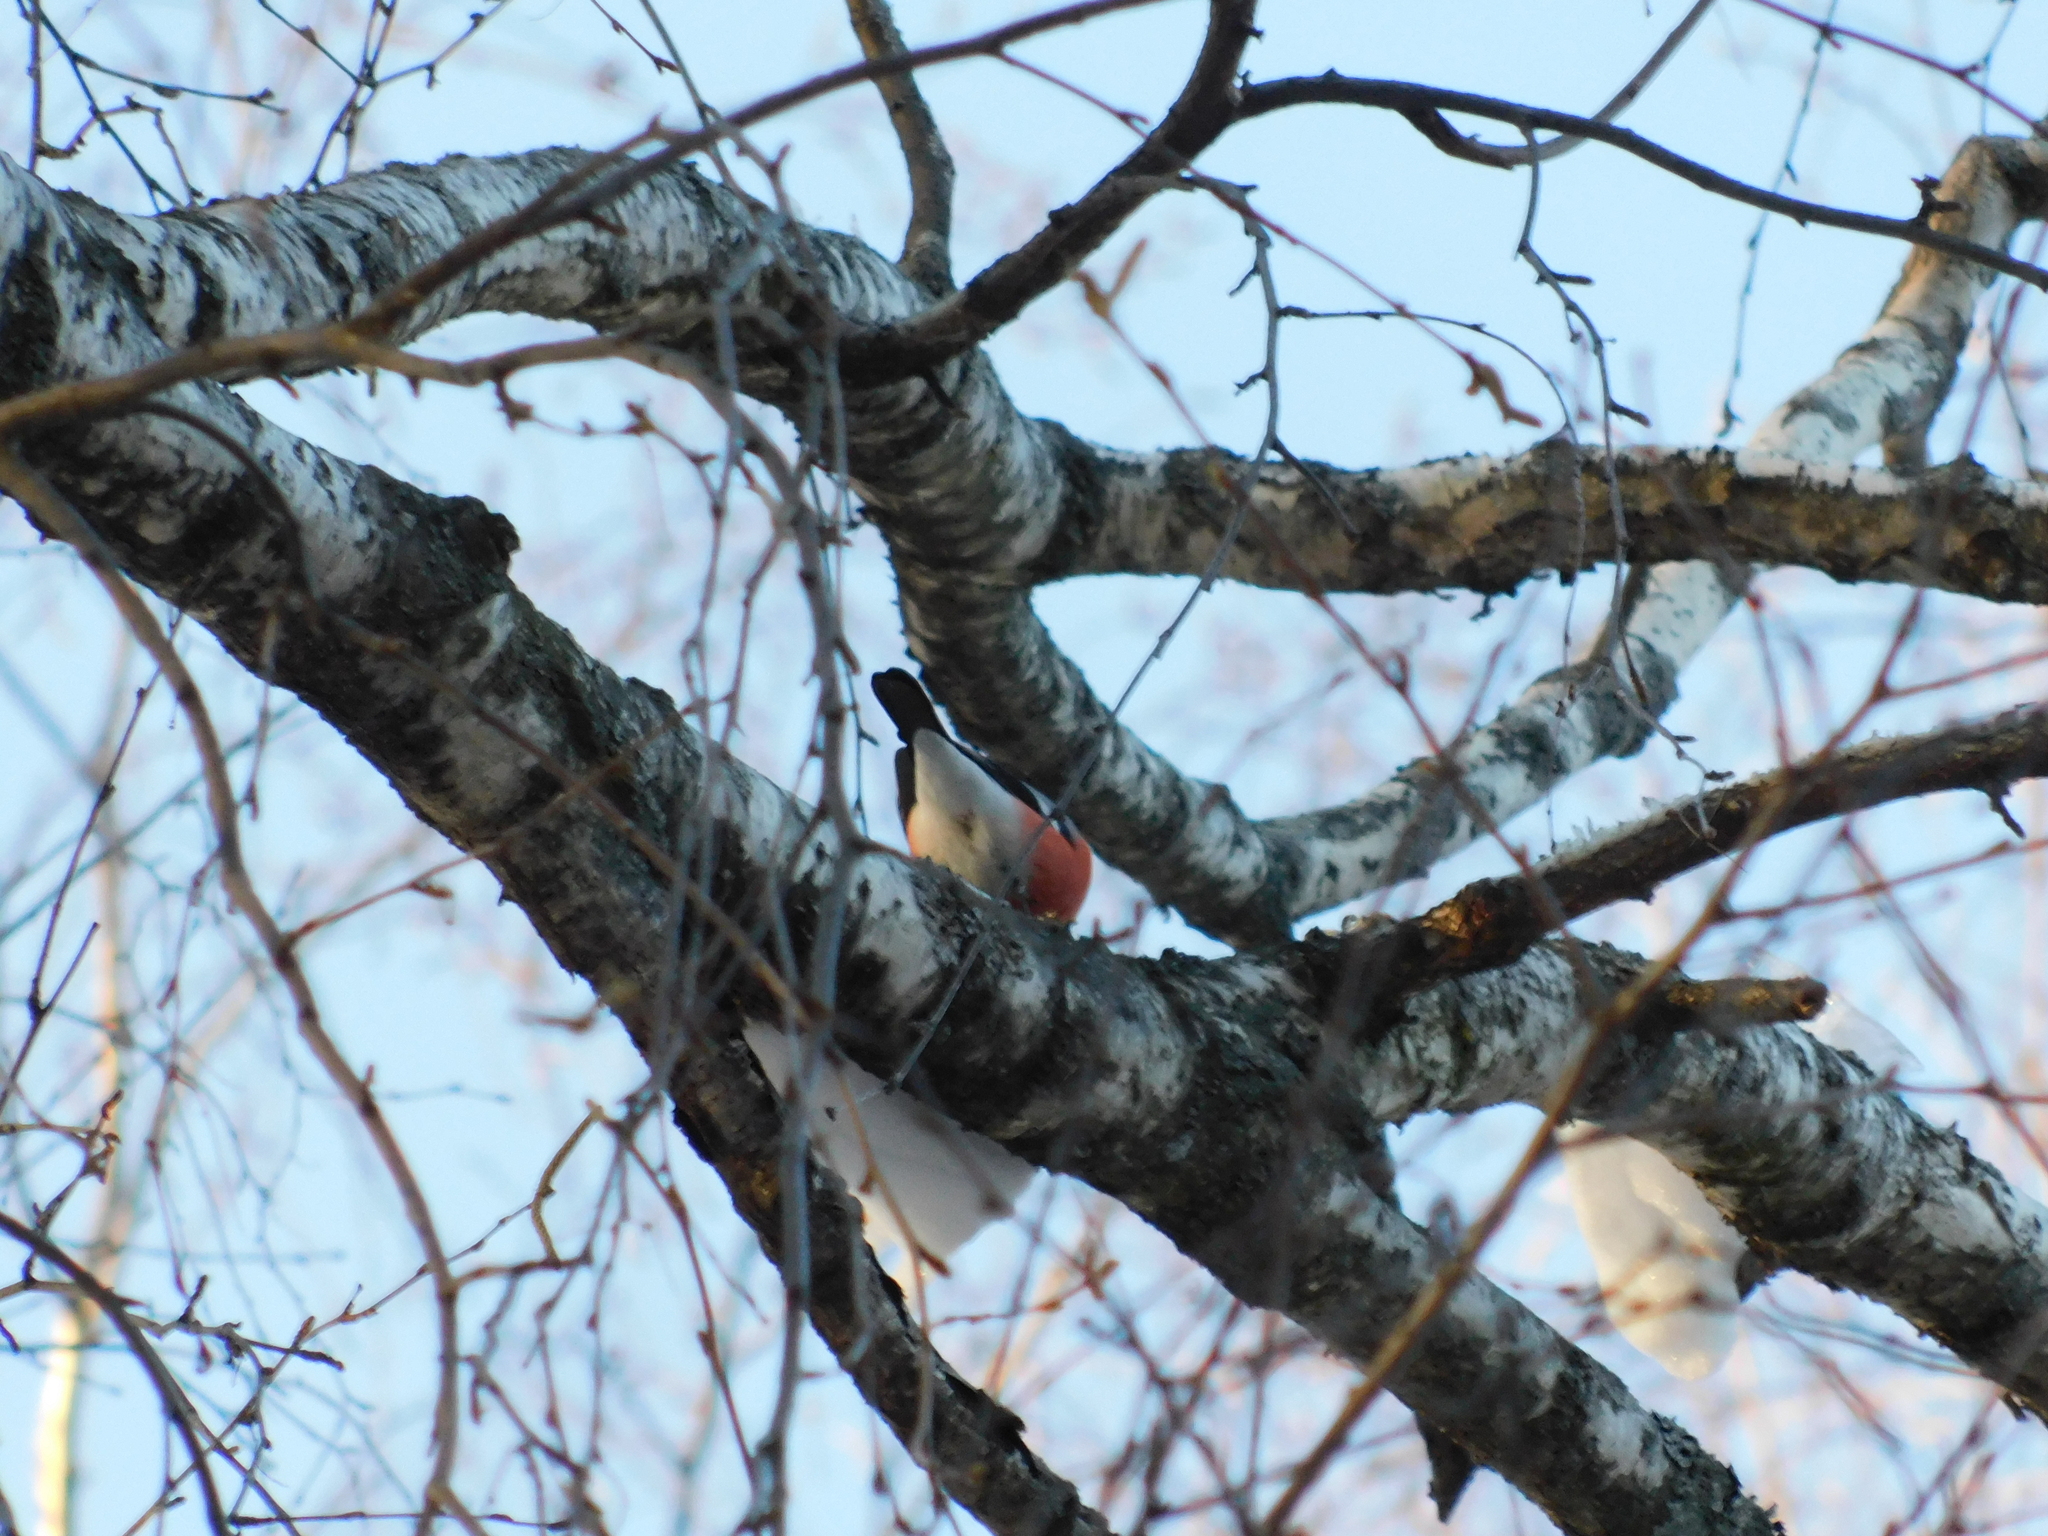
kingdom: Animalia
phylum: Chordata
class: Aves
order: Passeriformes
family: Fringillidae
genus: Pyrrhula
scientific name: Pyrrhula pyrrhula
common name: Eurasian bullfinch
